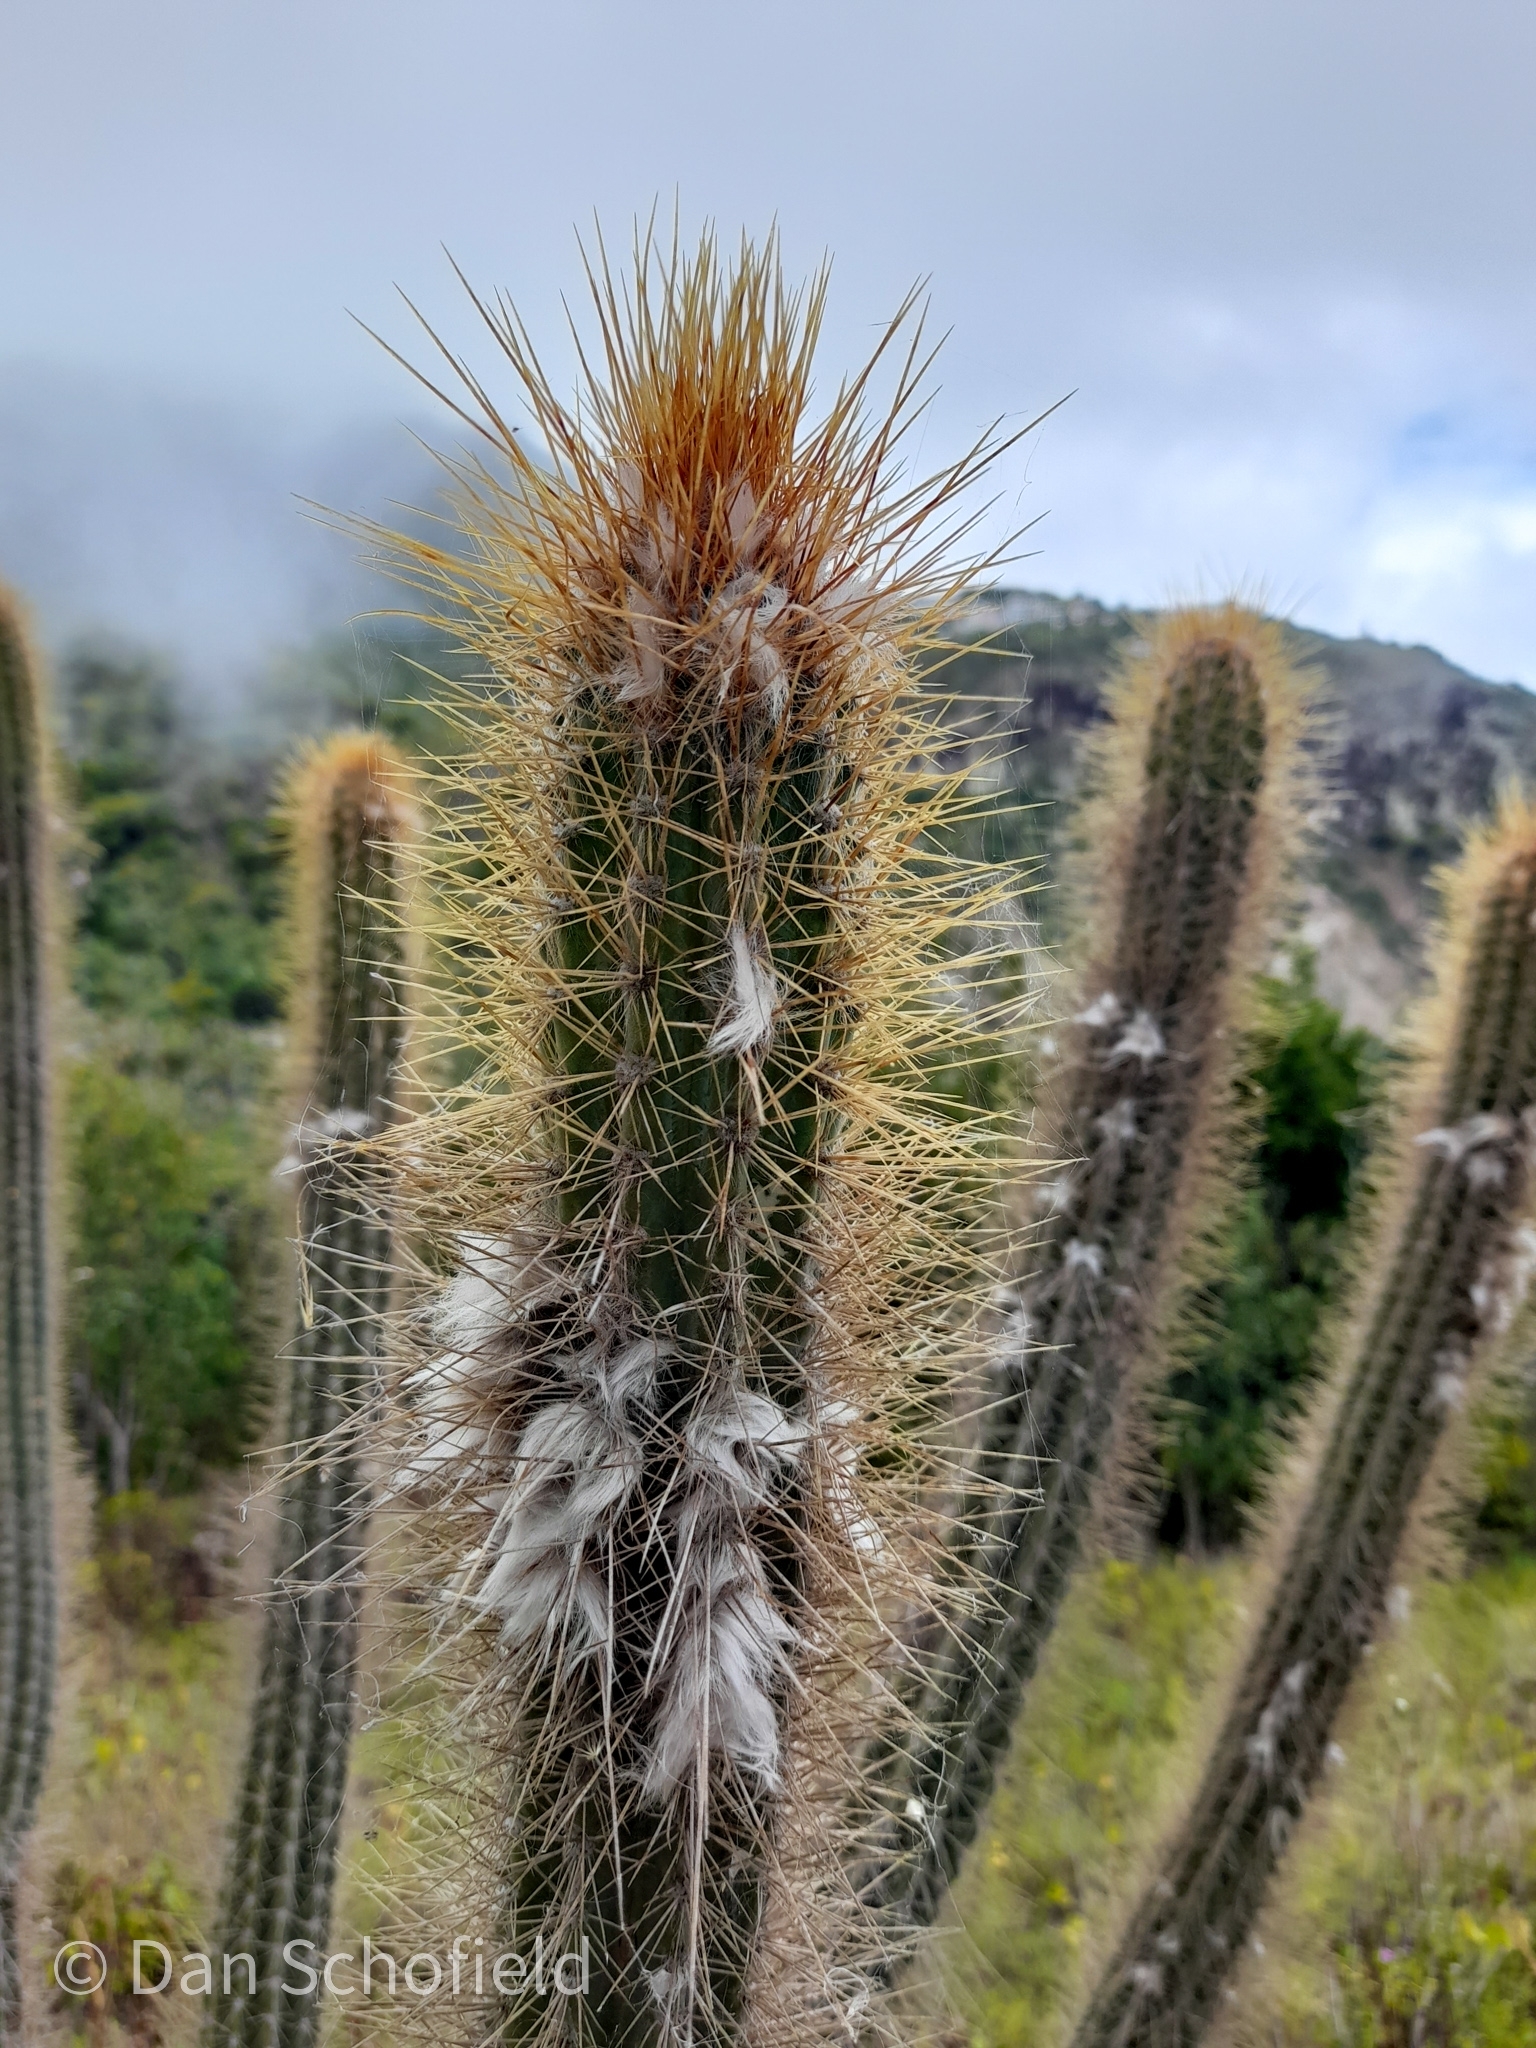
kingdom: Plantae
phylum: Tracheophyta
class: Magnoliopsida
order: Caryophyllales
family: Cactaceae
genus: Pilosocereus
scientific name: Pilosocereus curtisii
